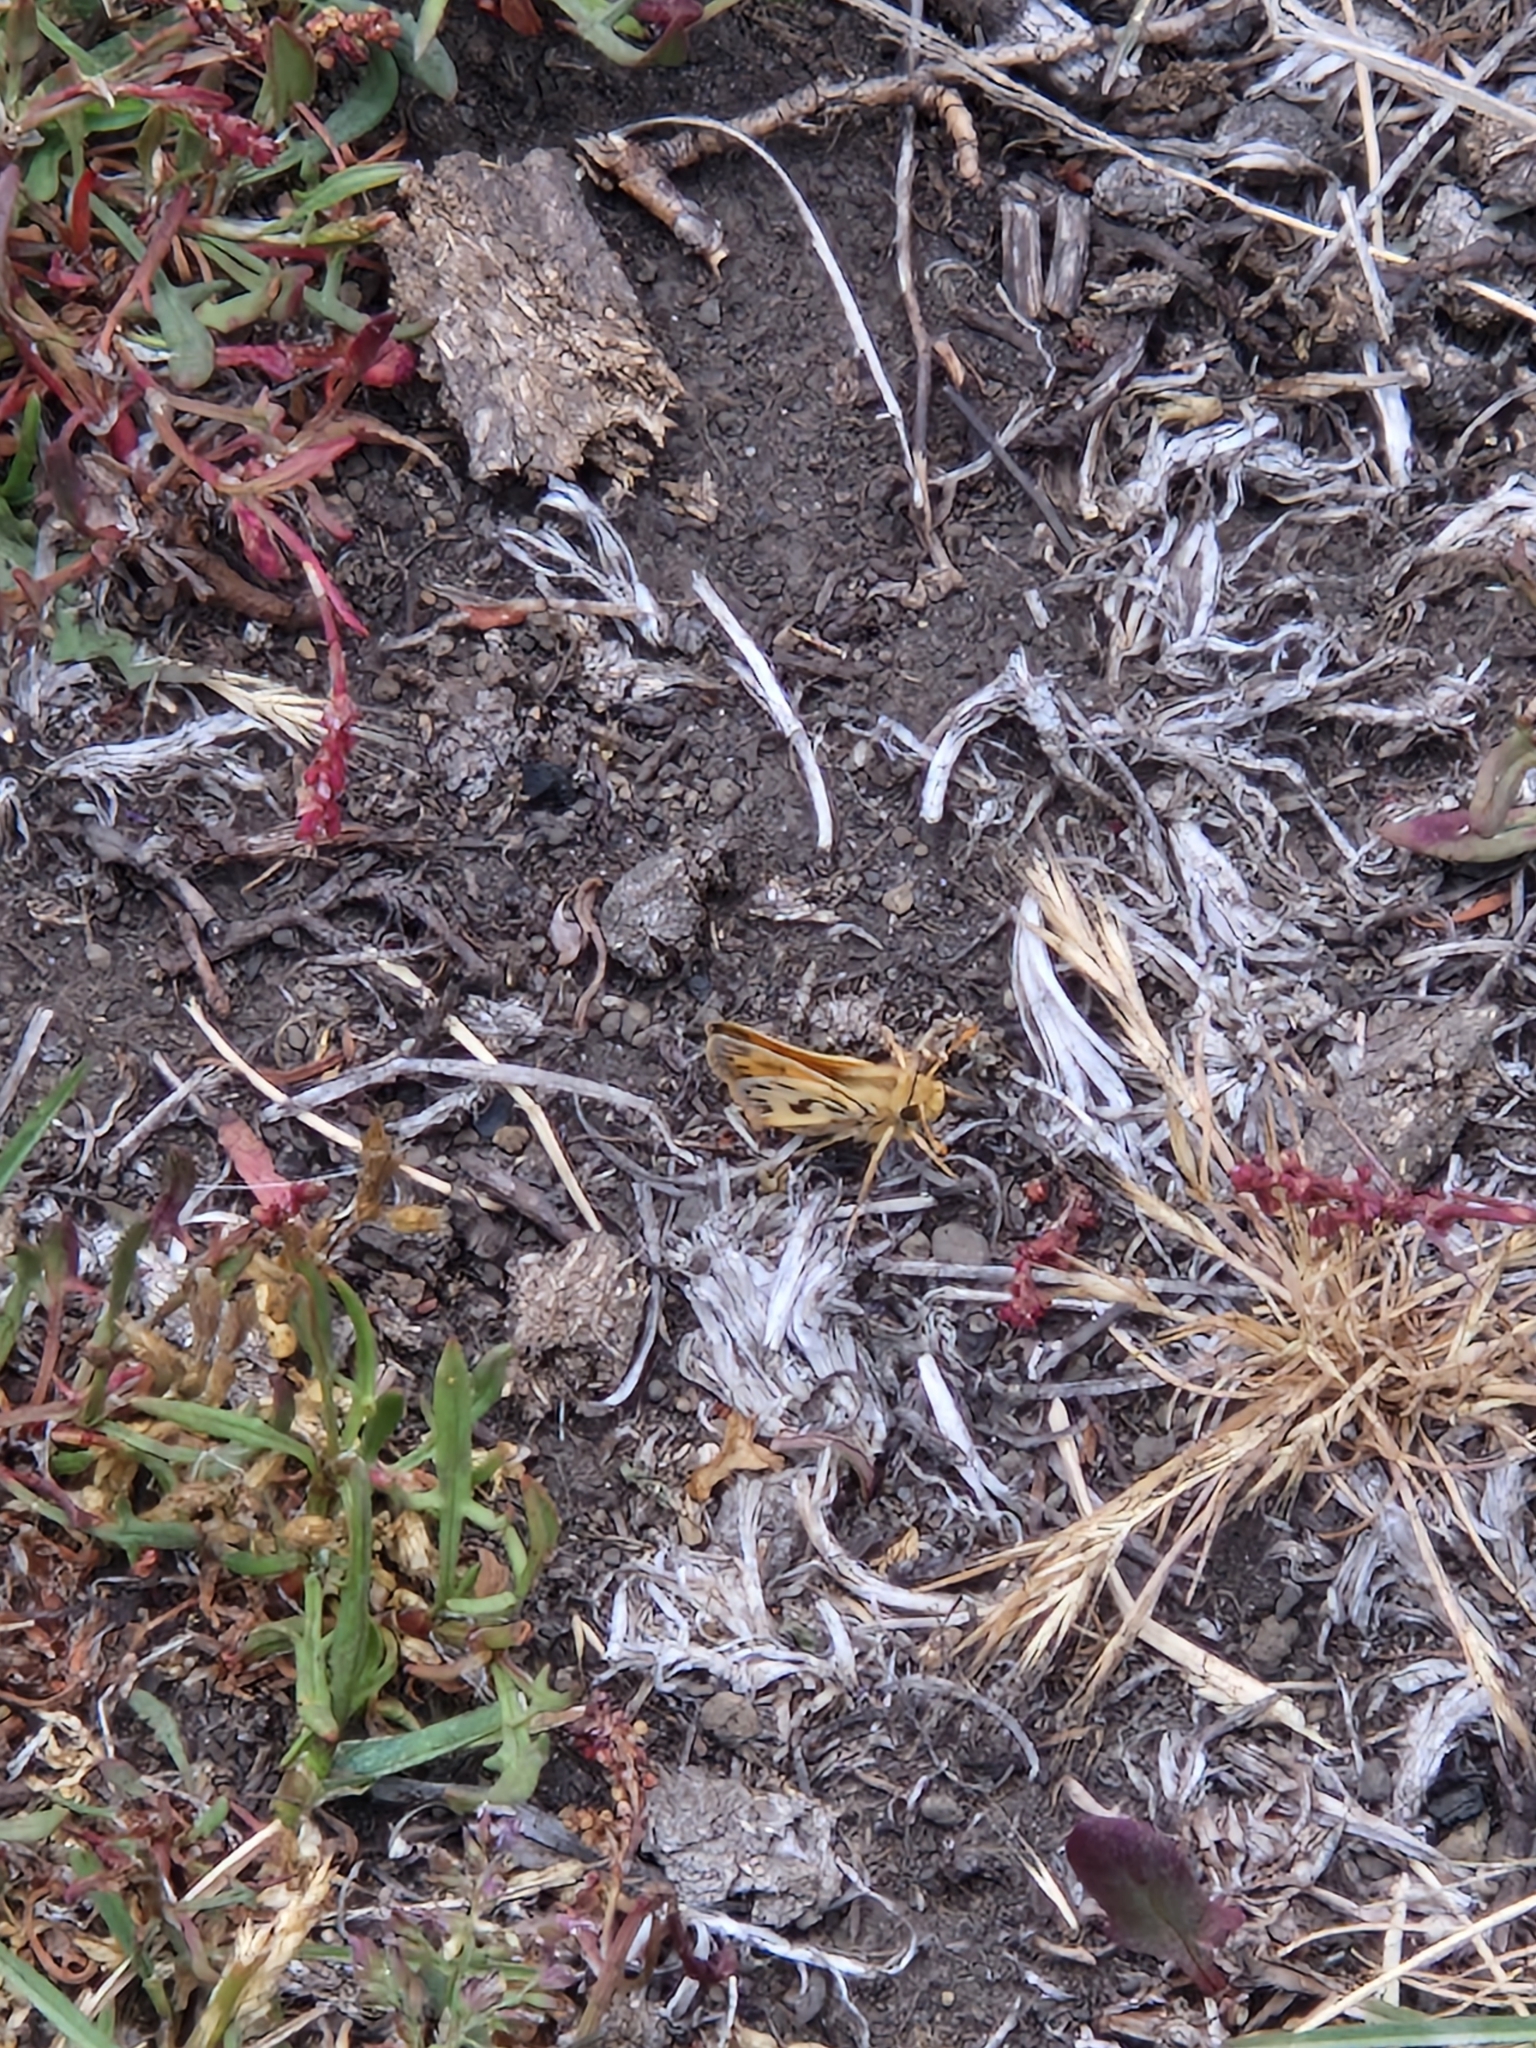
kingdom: Animalia
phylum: Arthropoda
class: Insecta
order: Coleoptera
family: Melyridae
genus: Arthrobrachus
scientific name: Arthrobrachus nigromaculatus
